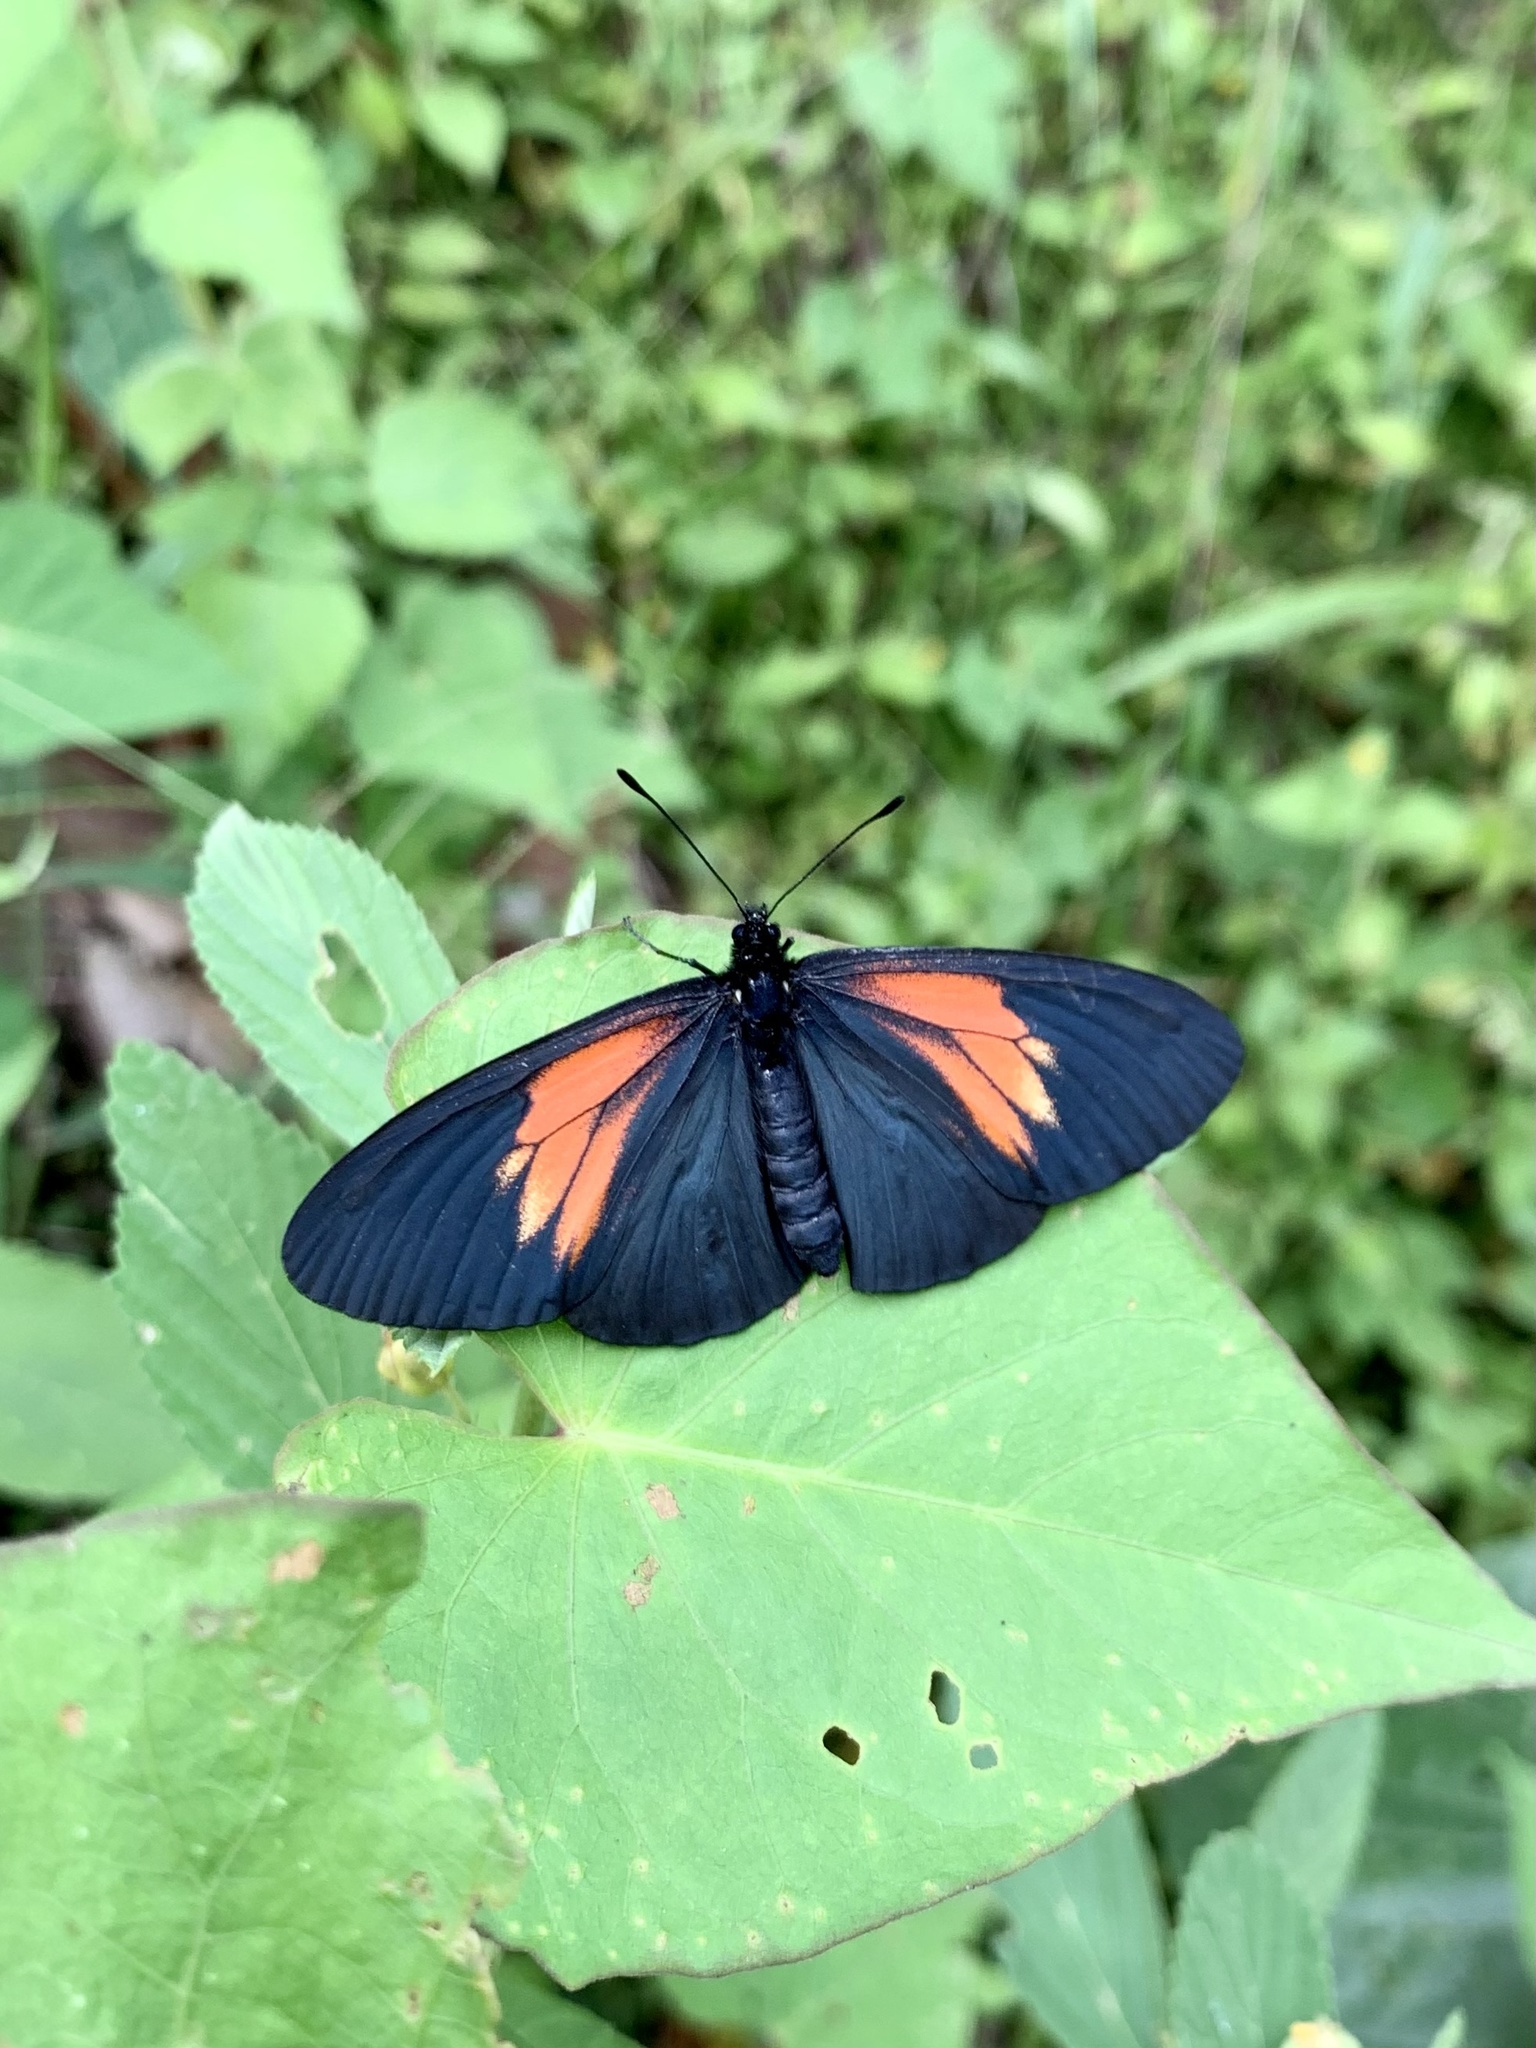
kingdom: Animalia
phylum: Arthropoda
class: Insecta
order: Lepidoptera
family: Nymphalidae
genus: Acraea
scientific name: Acraea Altinote ozomene
